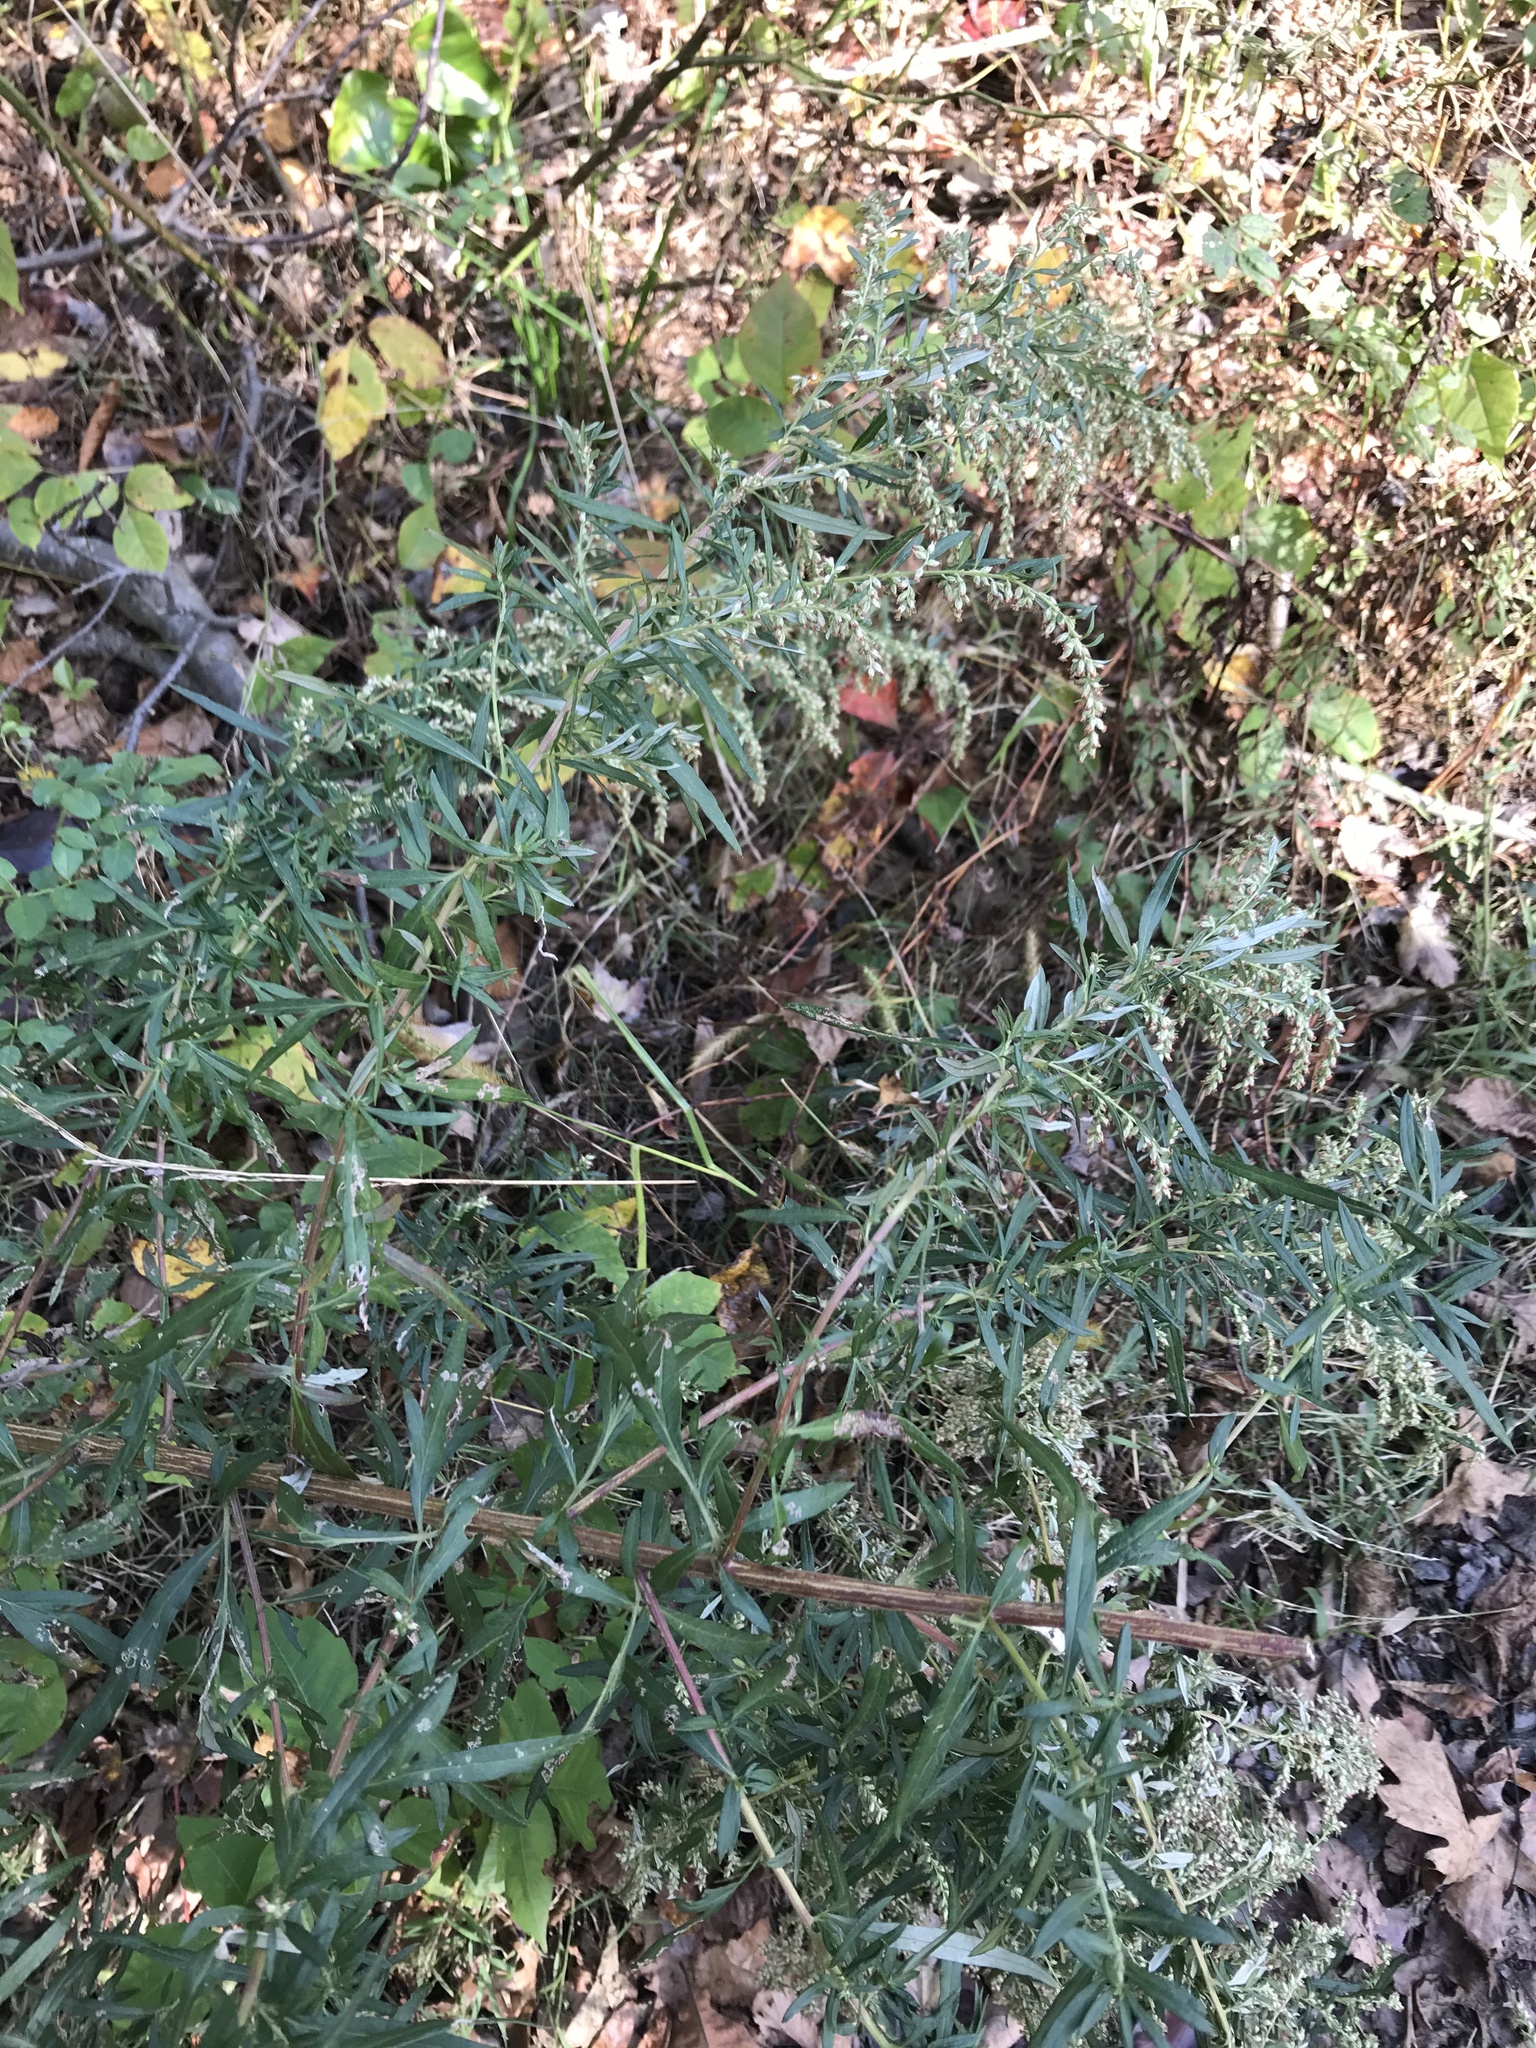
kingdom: Plantae
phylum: Tracheophyta
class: Magnoliopsida
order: Asterales
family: Asteraceae
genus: Artemisia
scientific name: Artemisia vulgaris
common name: Mugwort
